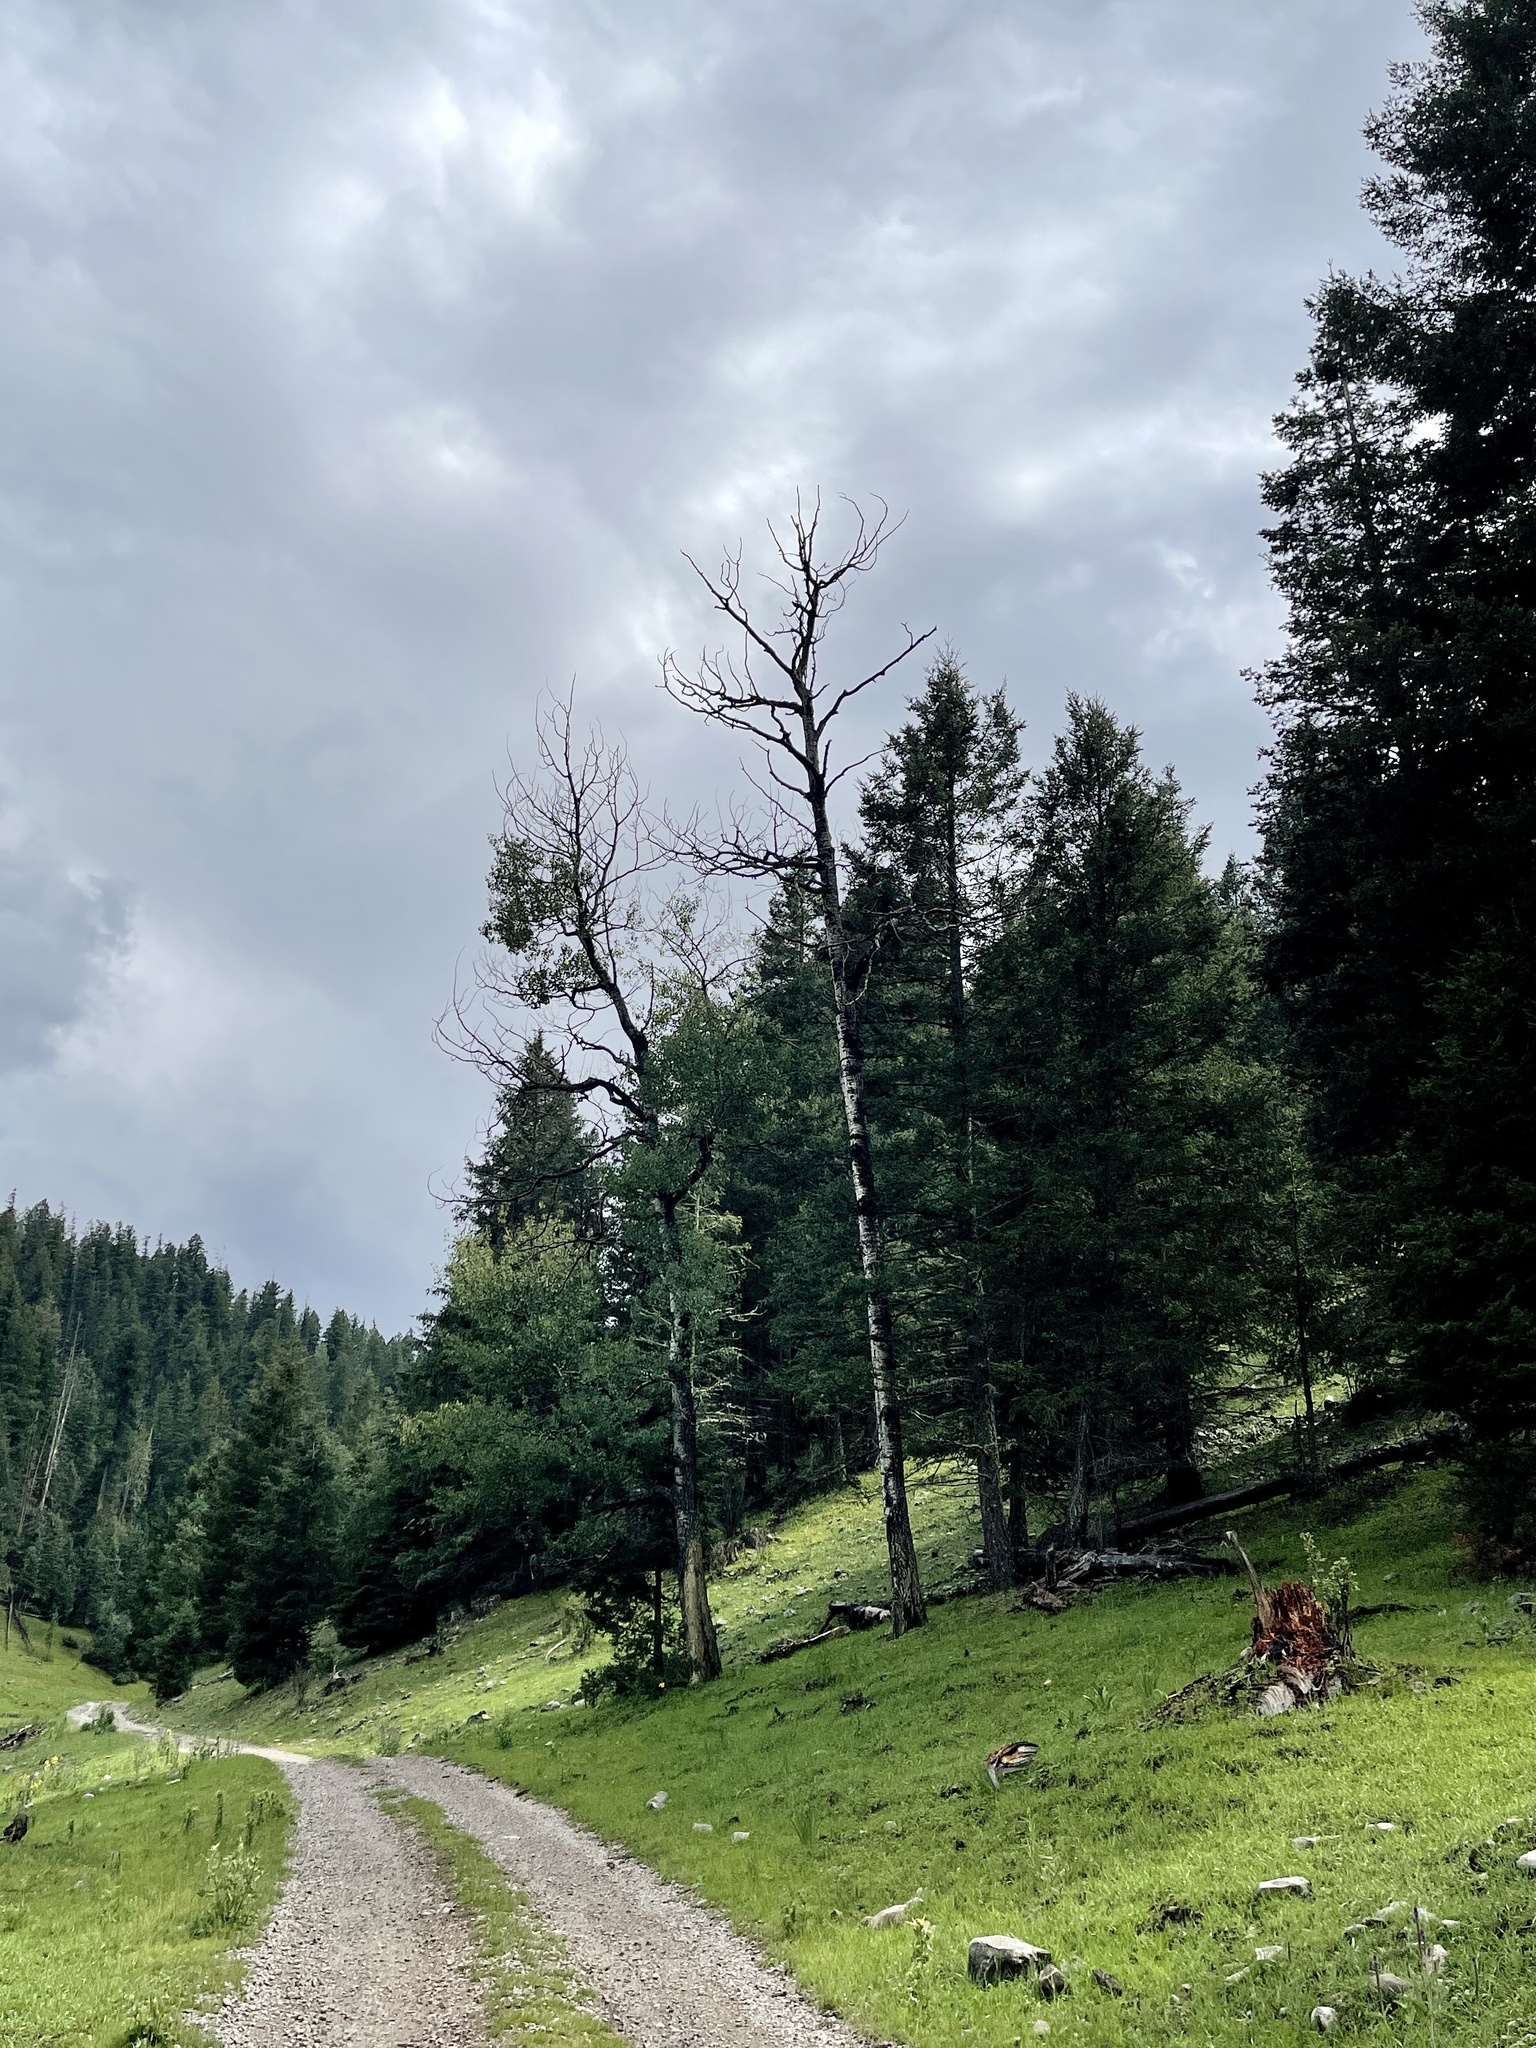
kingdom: Plantae
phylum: Tracheophyta
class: Magnoliopsida
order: Malpighiales
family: Salicaceae
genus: Populus
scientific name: Populus tremuloides
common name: Quaking aspen
